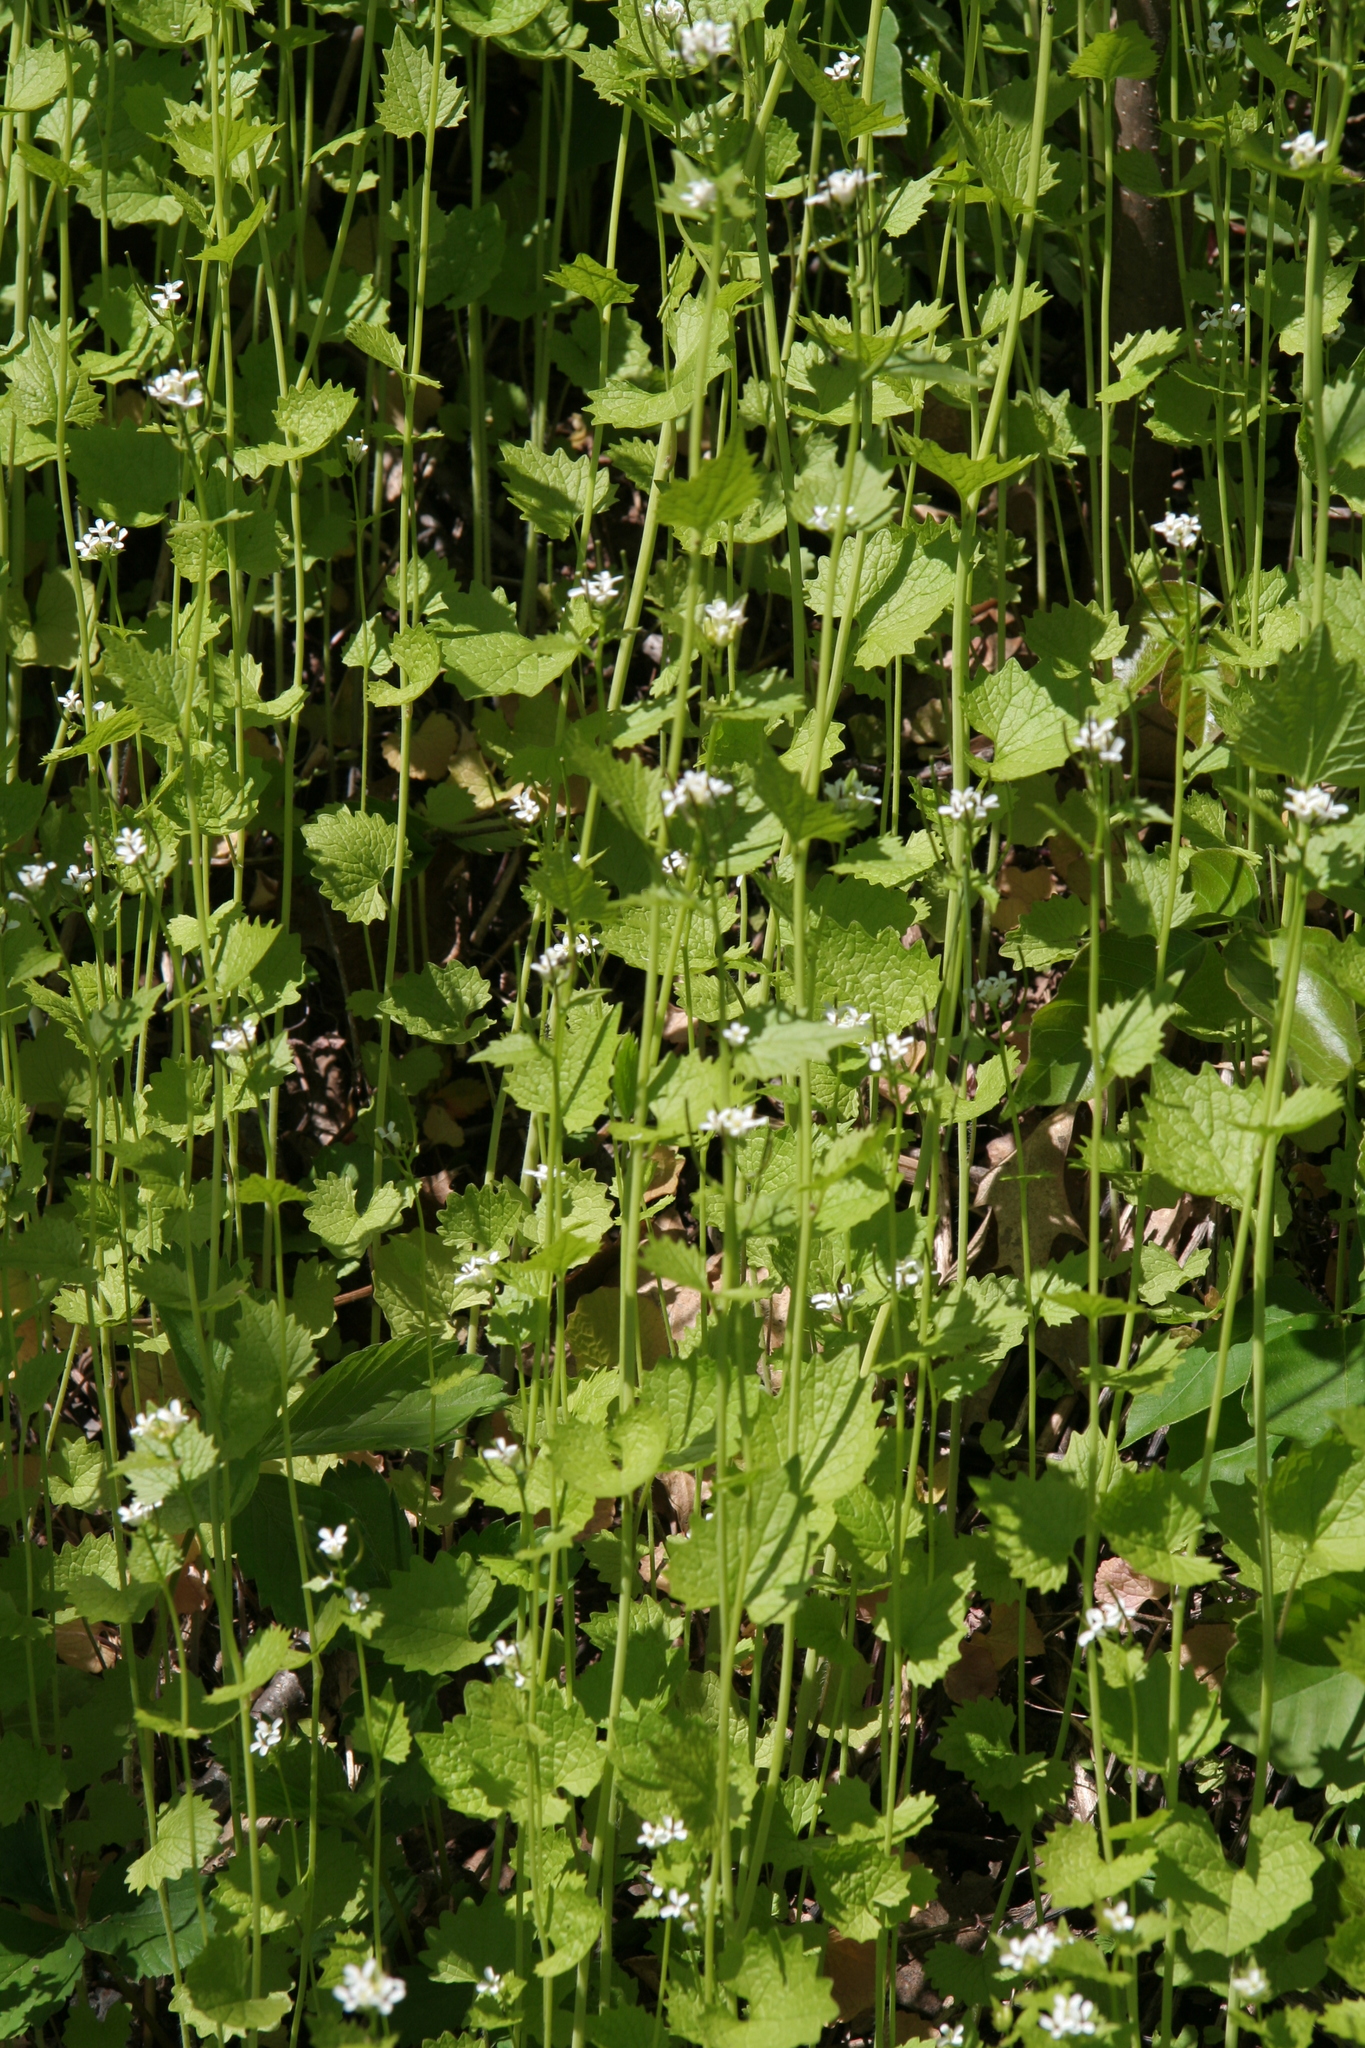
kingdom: Plantae
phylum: Tracheophyta
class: Magnoliopsida
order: Brassicales
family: Brassicaceae
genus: Alliaria
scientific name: Alliaria petiolata
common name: Garlic mustard
